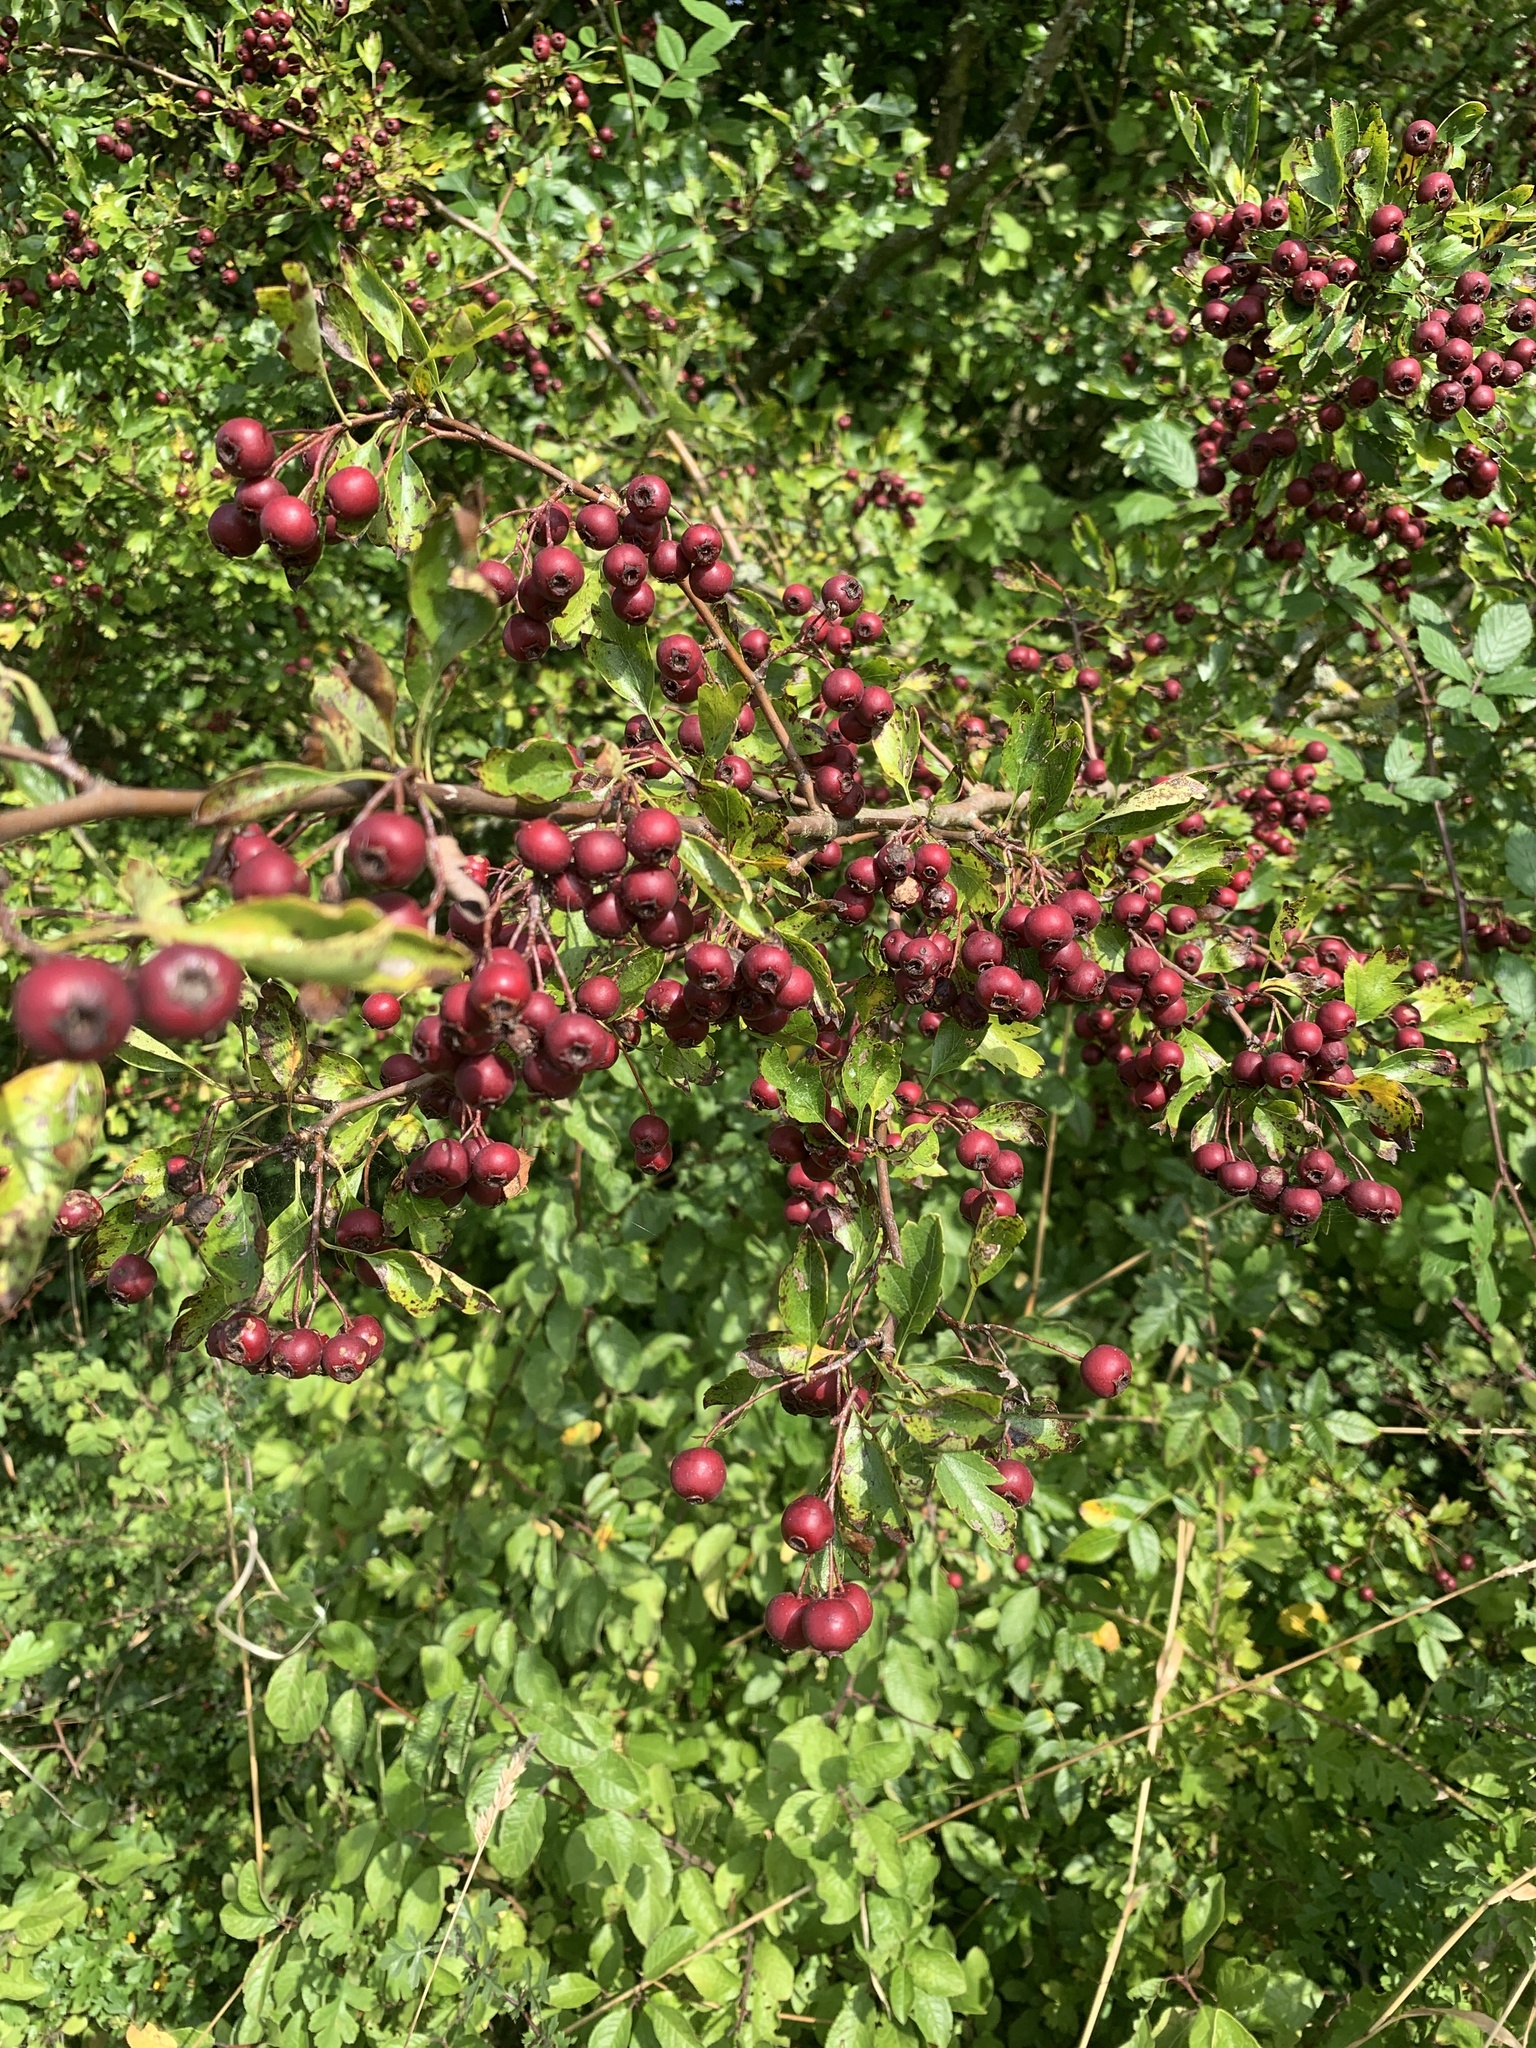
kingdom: Plantae
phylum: Tracheophyta
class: Magnoliopsida
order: Rosales
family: Rosaceae
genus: Crataegus
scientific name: Crataegus monogyna
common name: Hawthorn
